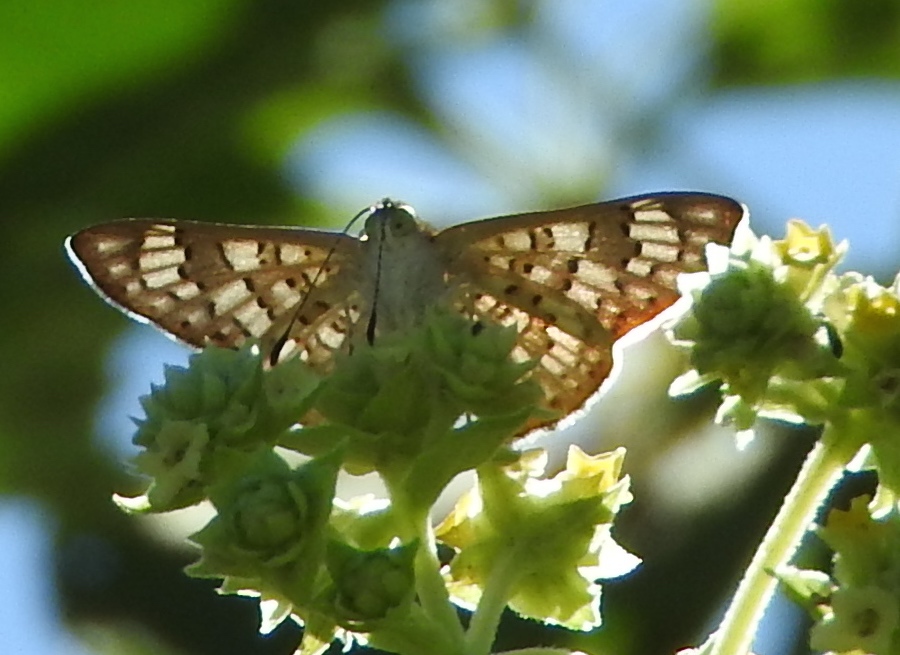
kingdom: Animalia
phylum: Arthropoda
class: Insecta
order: Lepidoptera
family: Riodinidae
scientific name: Riodinidae
